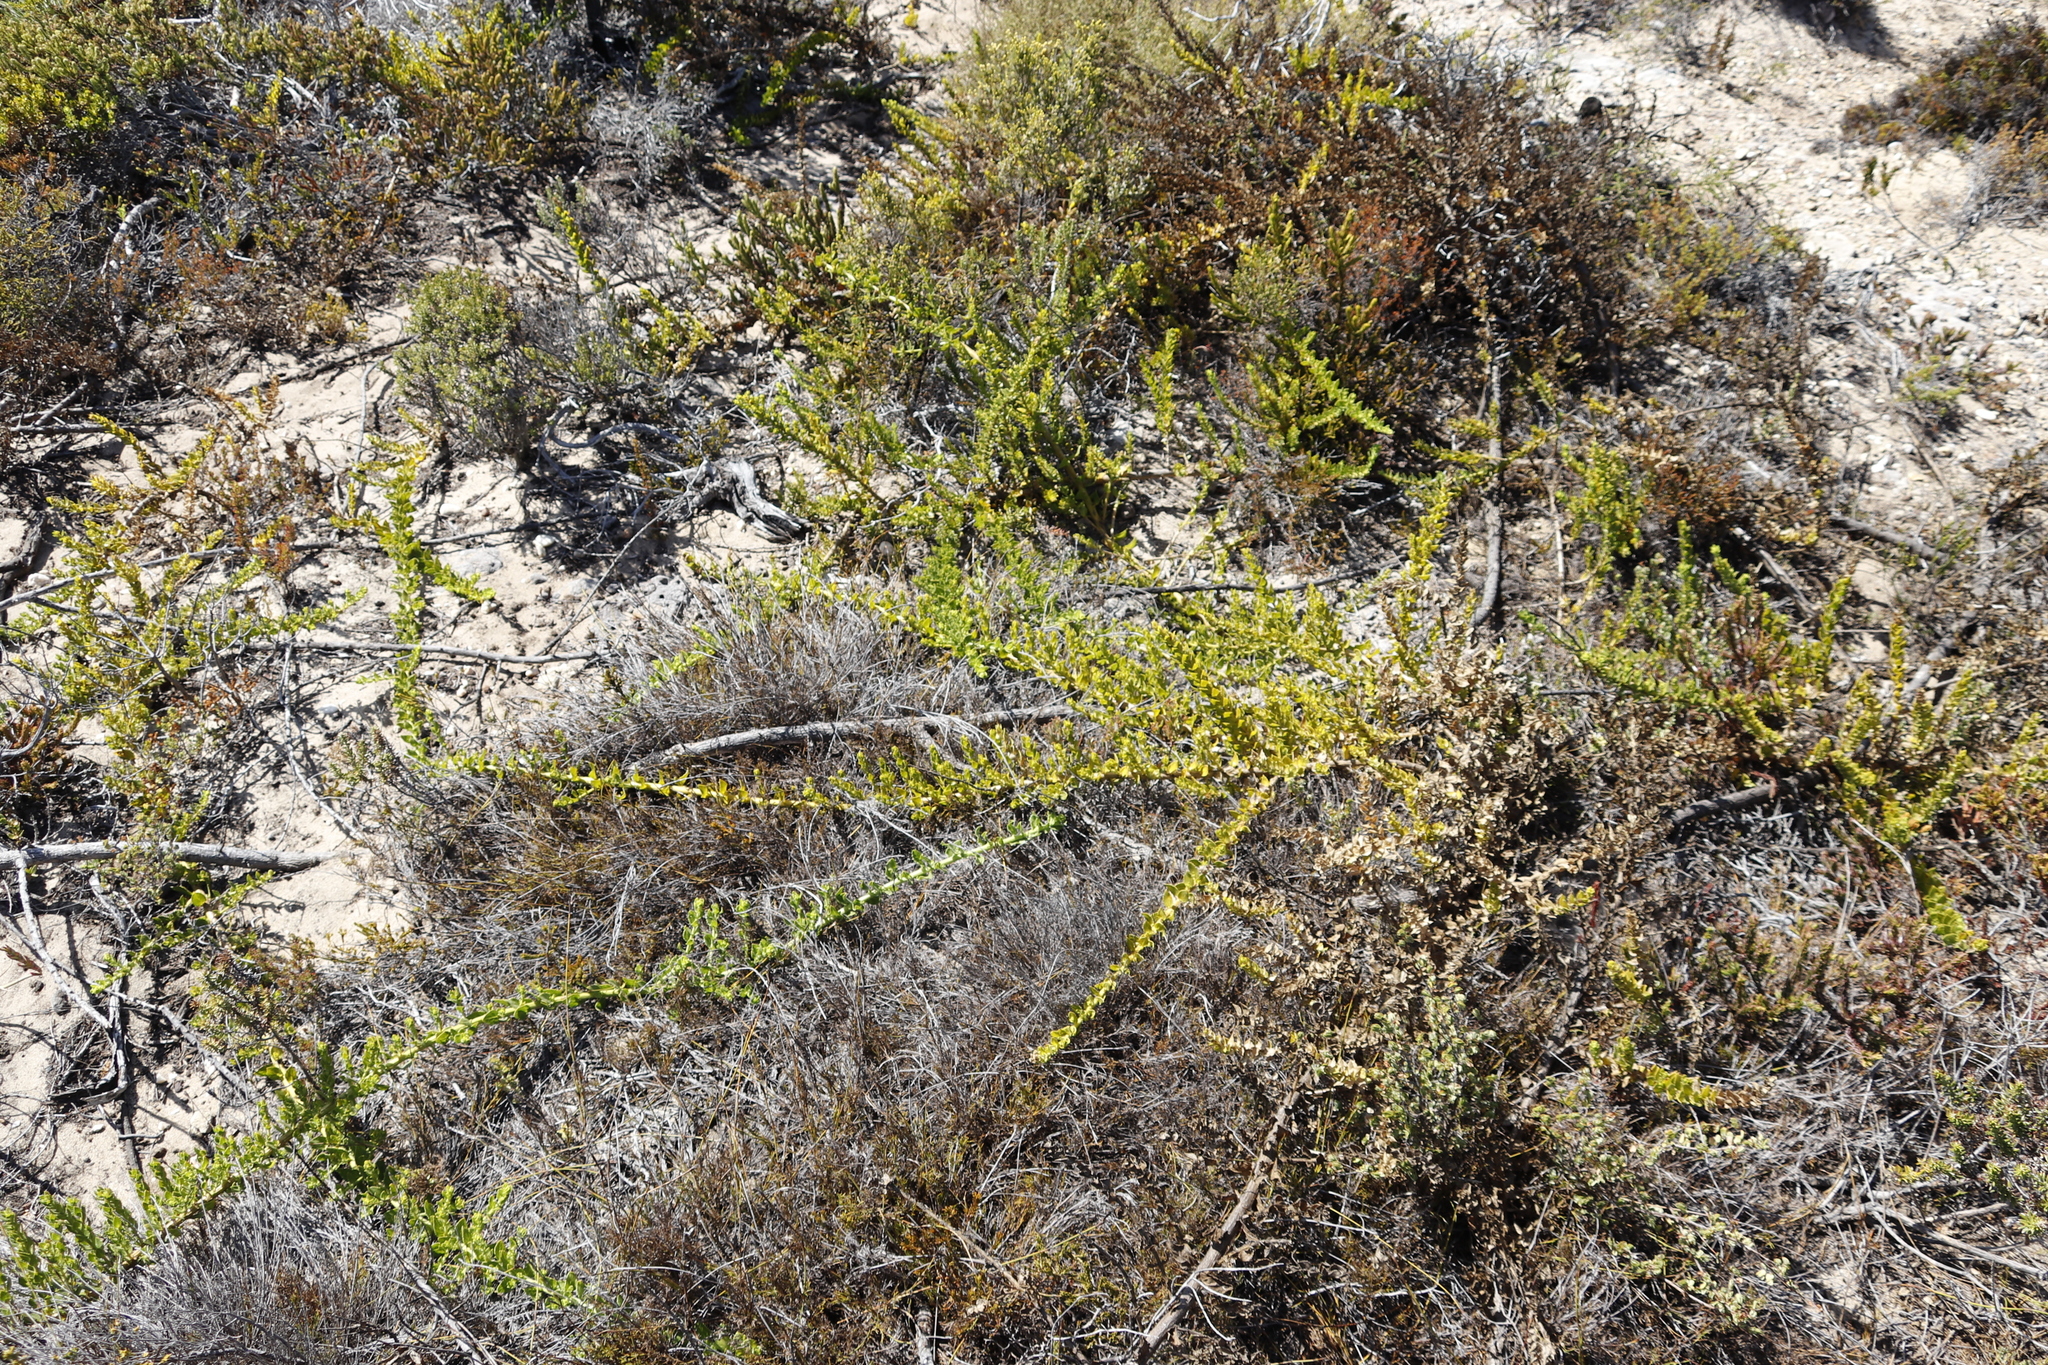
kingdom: Plantae
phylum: Tracheophyta
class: Magnoliopsida
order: Lamiales
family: Scrophulariaceae
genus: Oftia
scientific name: Oftia africana
